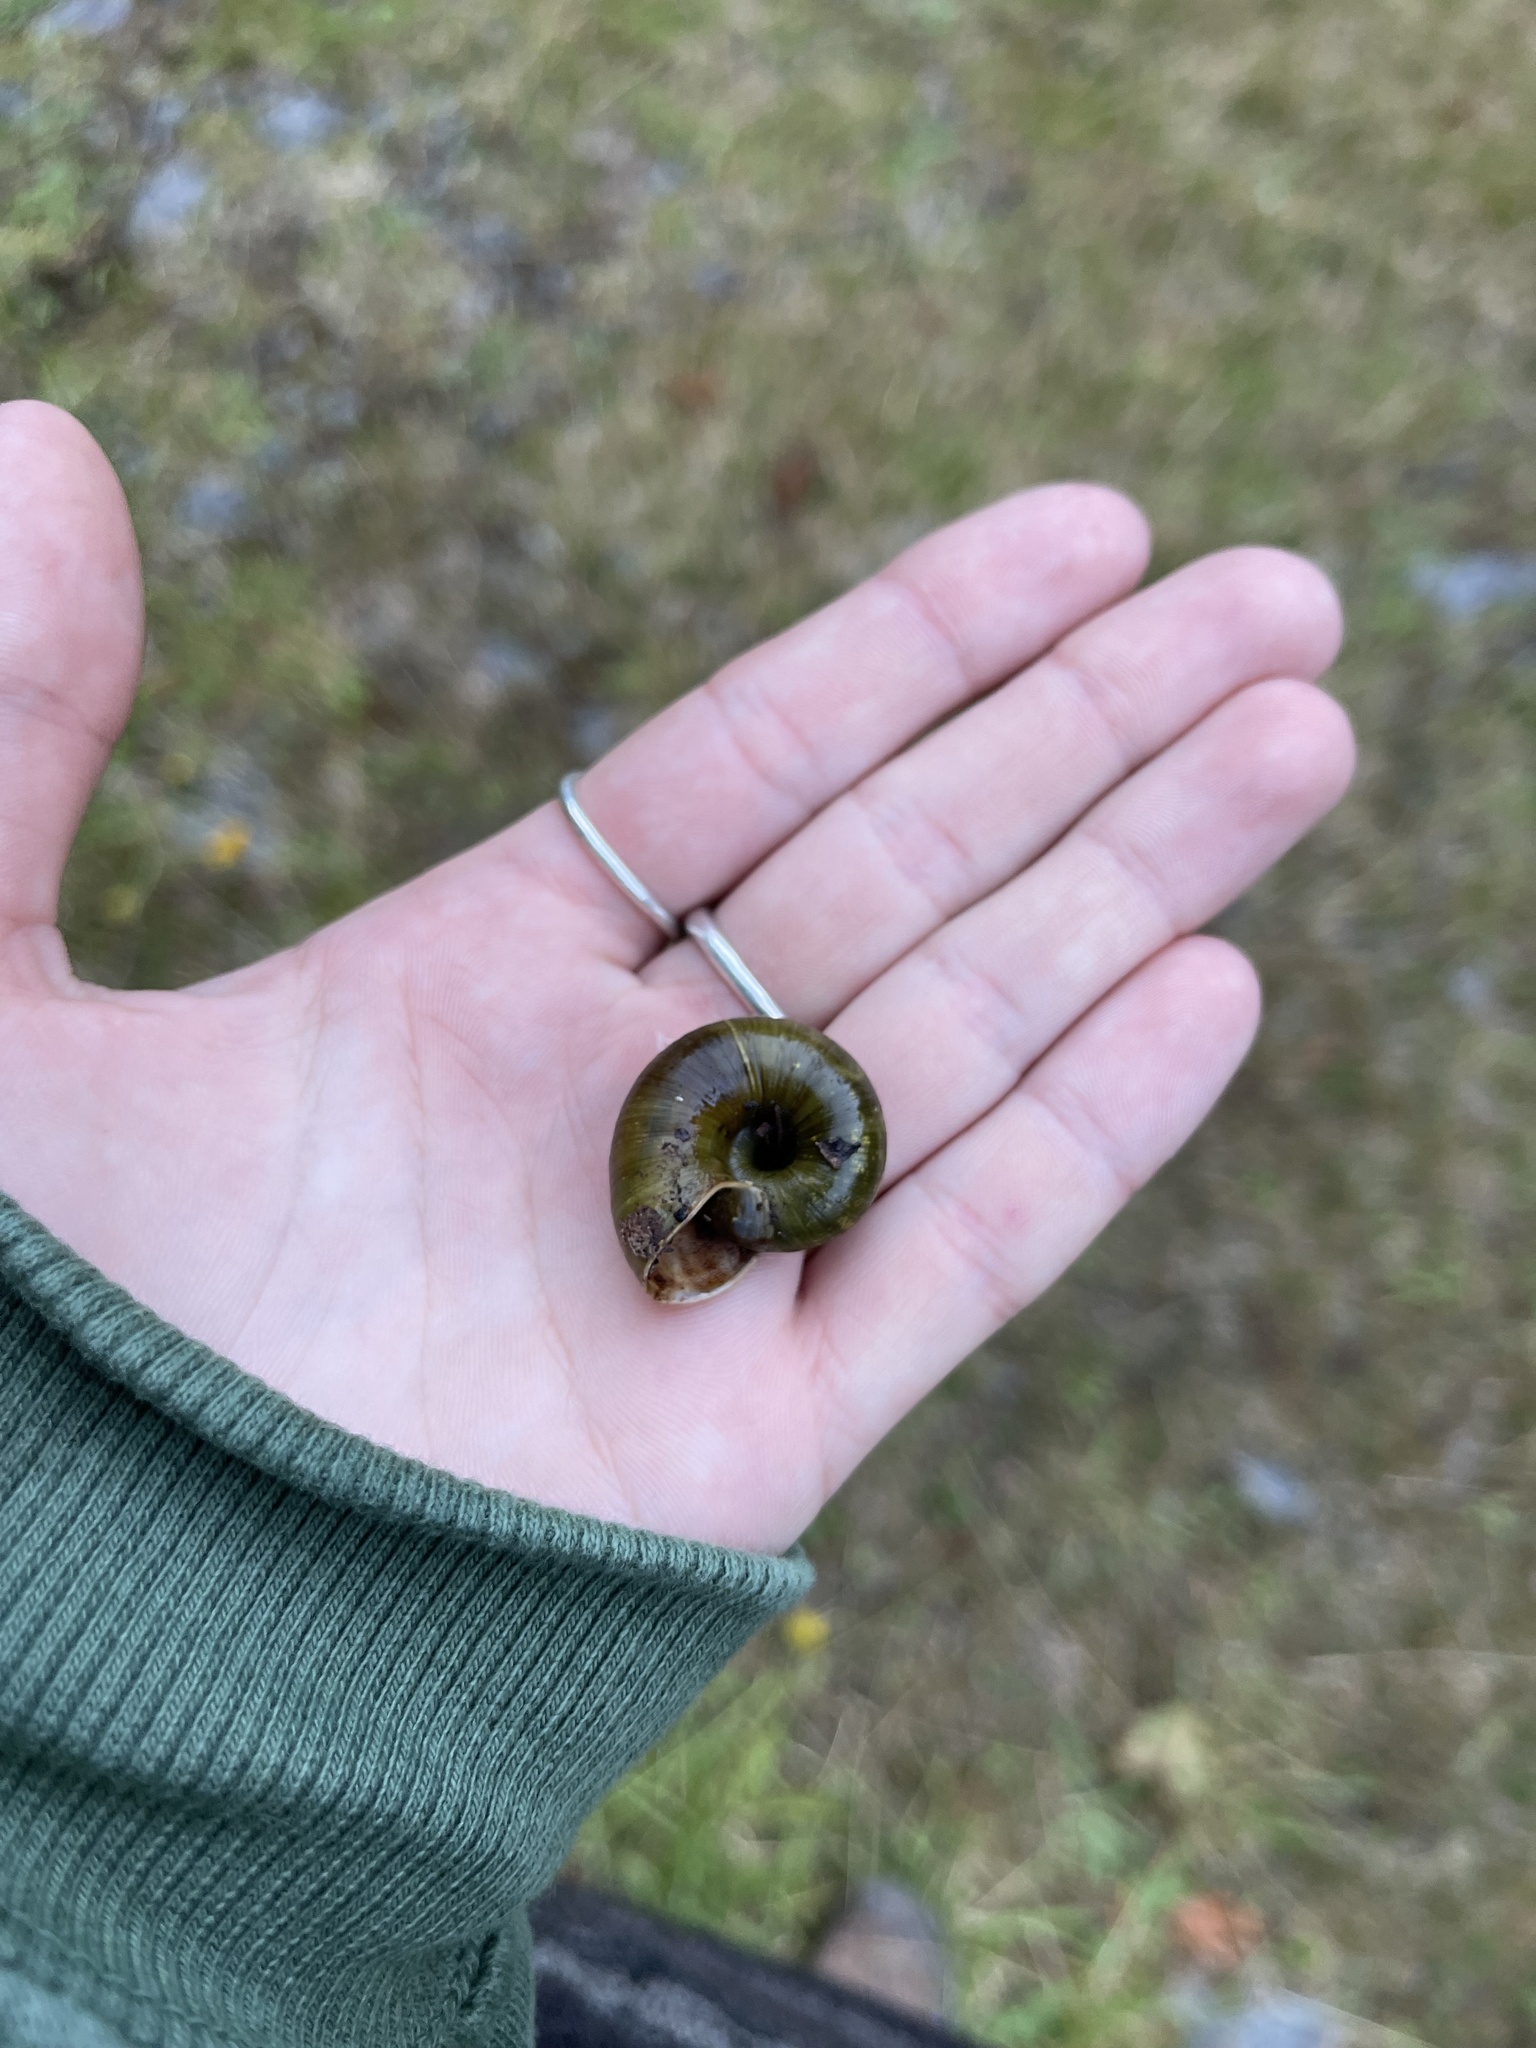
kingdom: Animalia
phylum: Mollusca
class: Gastropoda
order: Stylommatophora
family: Haplotrematidae
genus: Haplotrema
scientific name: Haplotrema vancouverense
